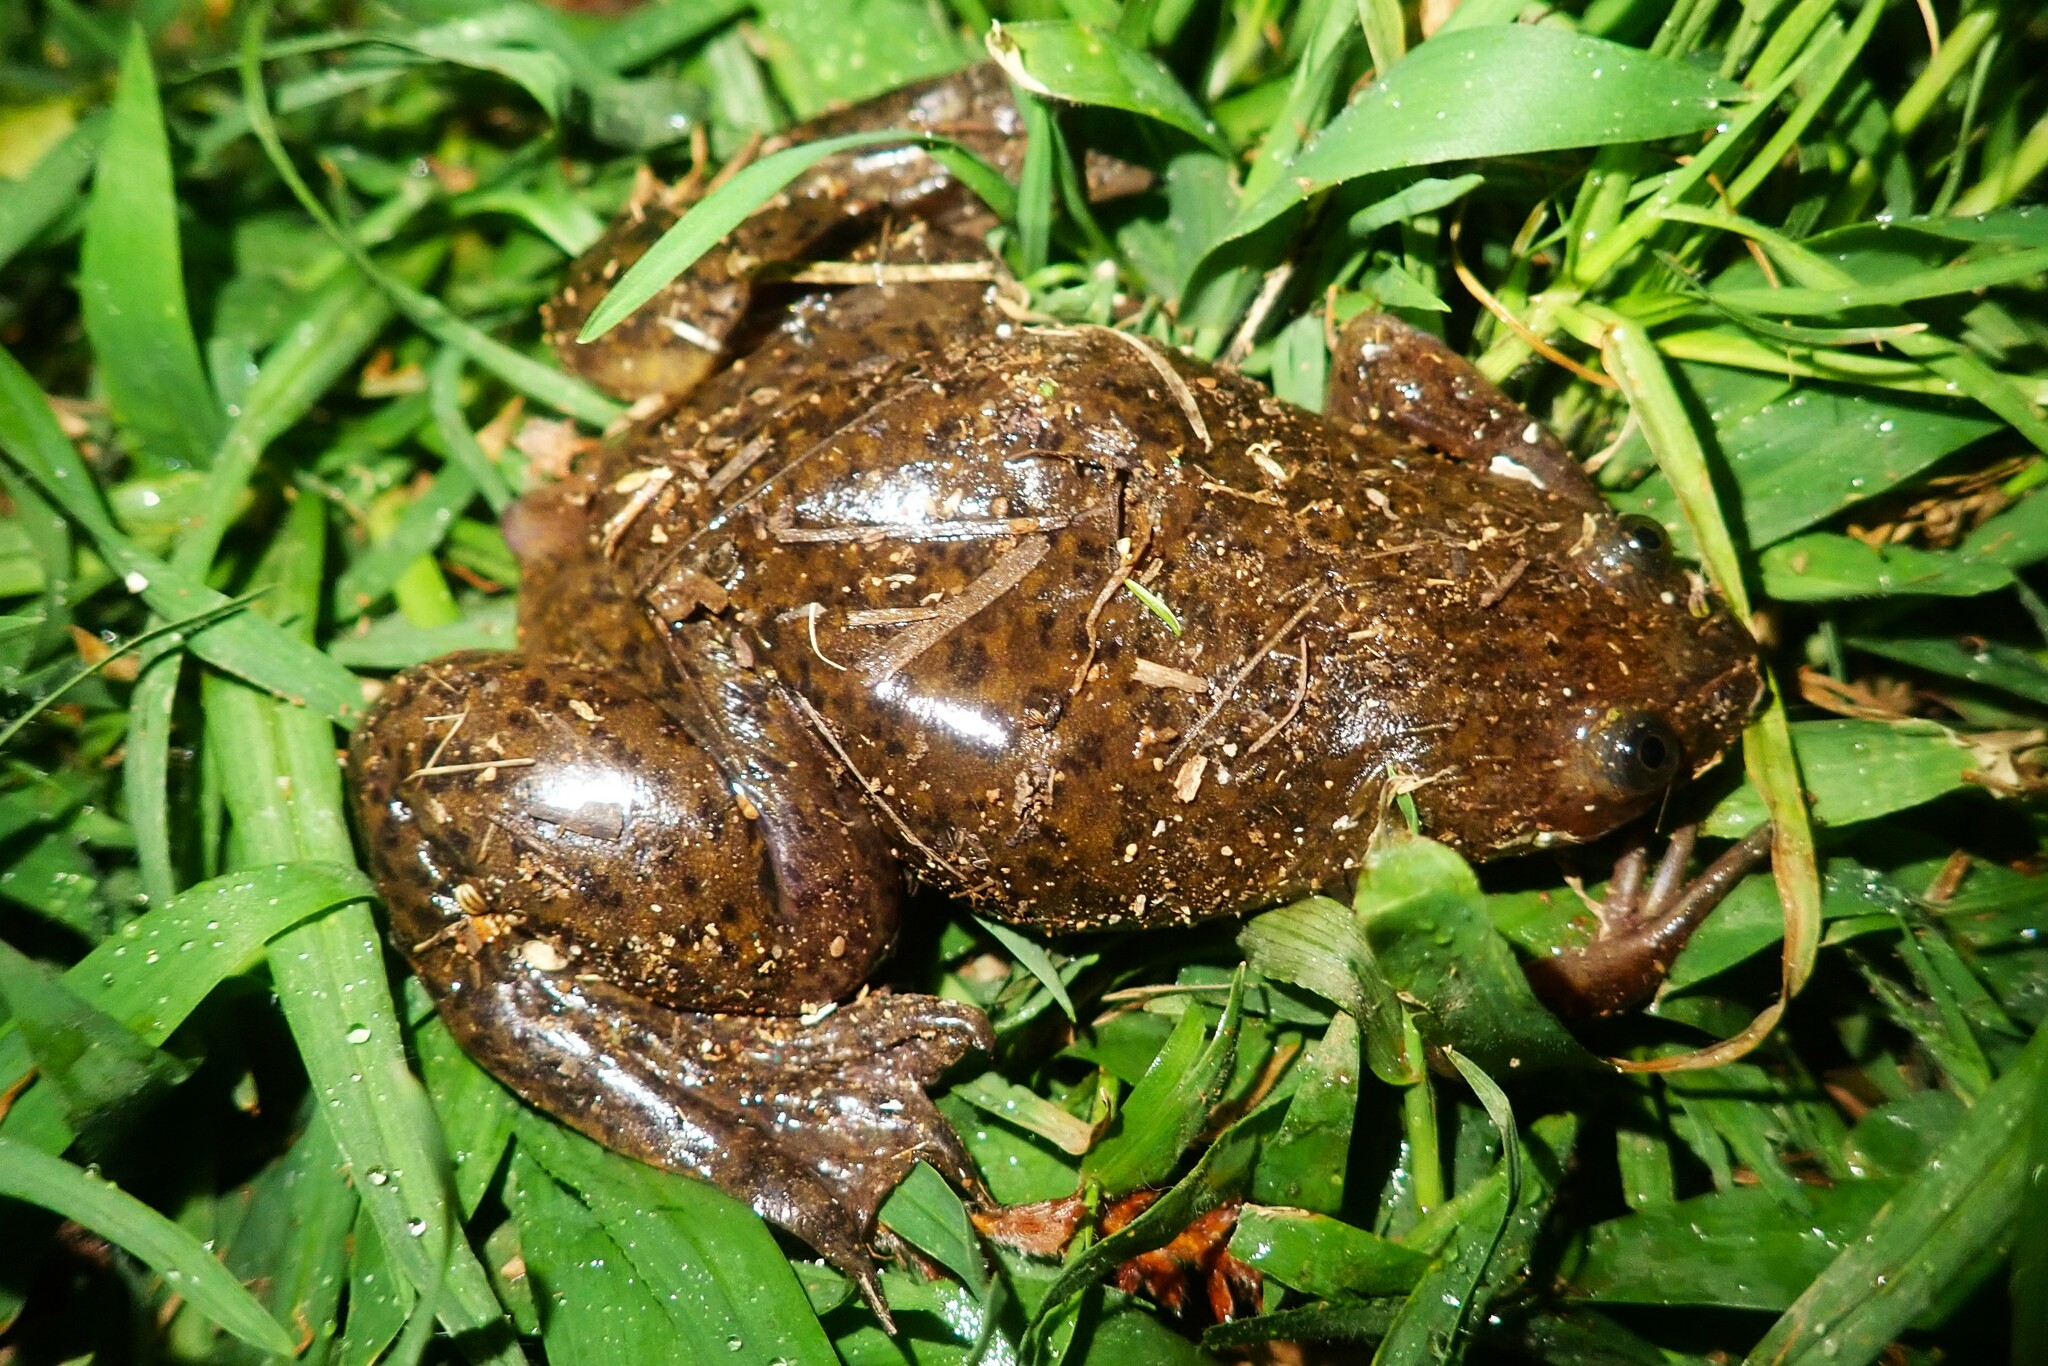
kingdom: Animalia
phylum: Chordata
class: Amphibia
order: Anura
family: Pipidae
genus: Xenopus
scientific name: Xenopus laevis
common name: African clawed frog
